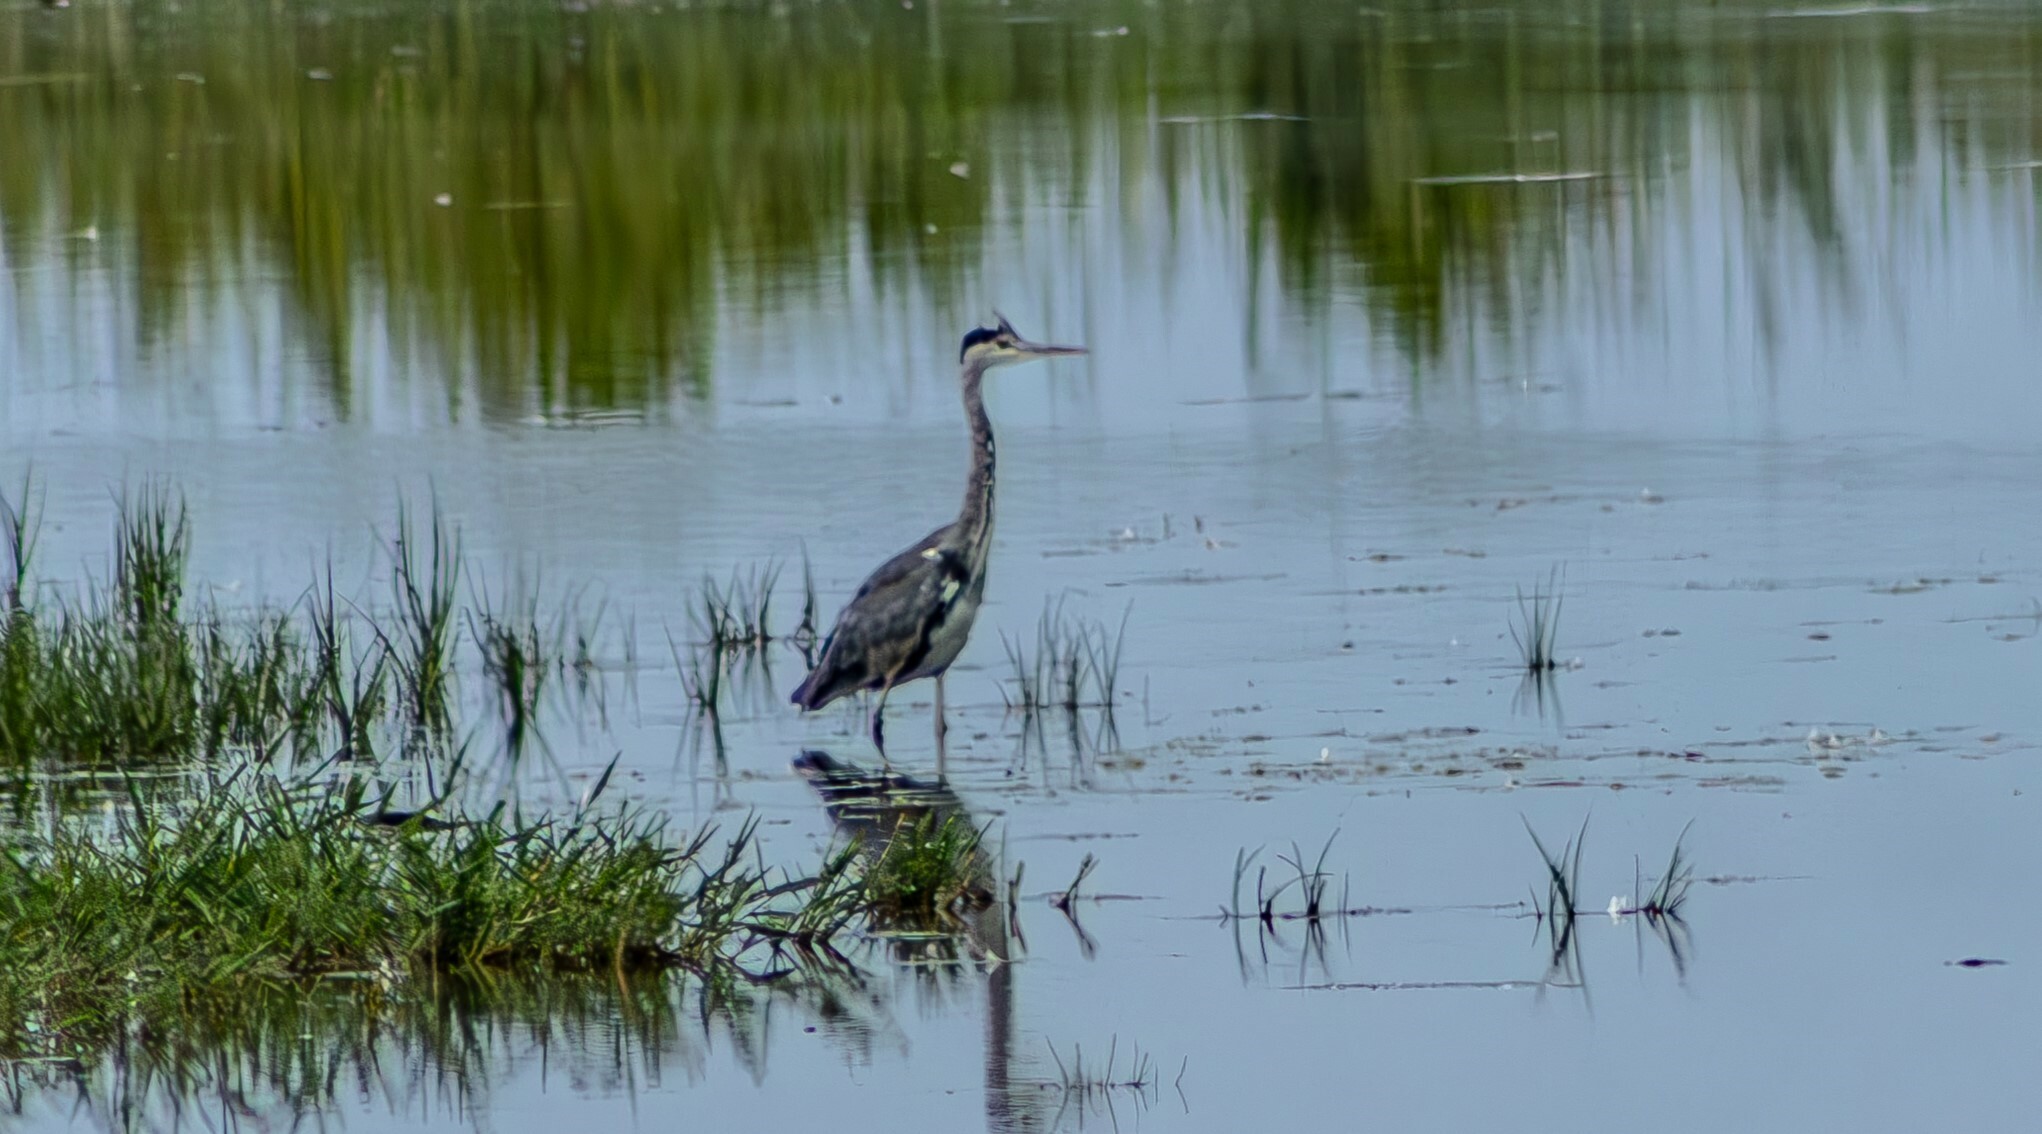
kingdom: Animalia
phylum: Chordata
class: Aves
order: Pelecaniformes
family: Ardeidae
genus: Ardea
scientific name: Ardea cinerea
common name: Grey heron
